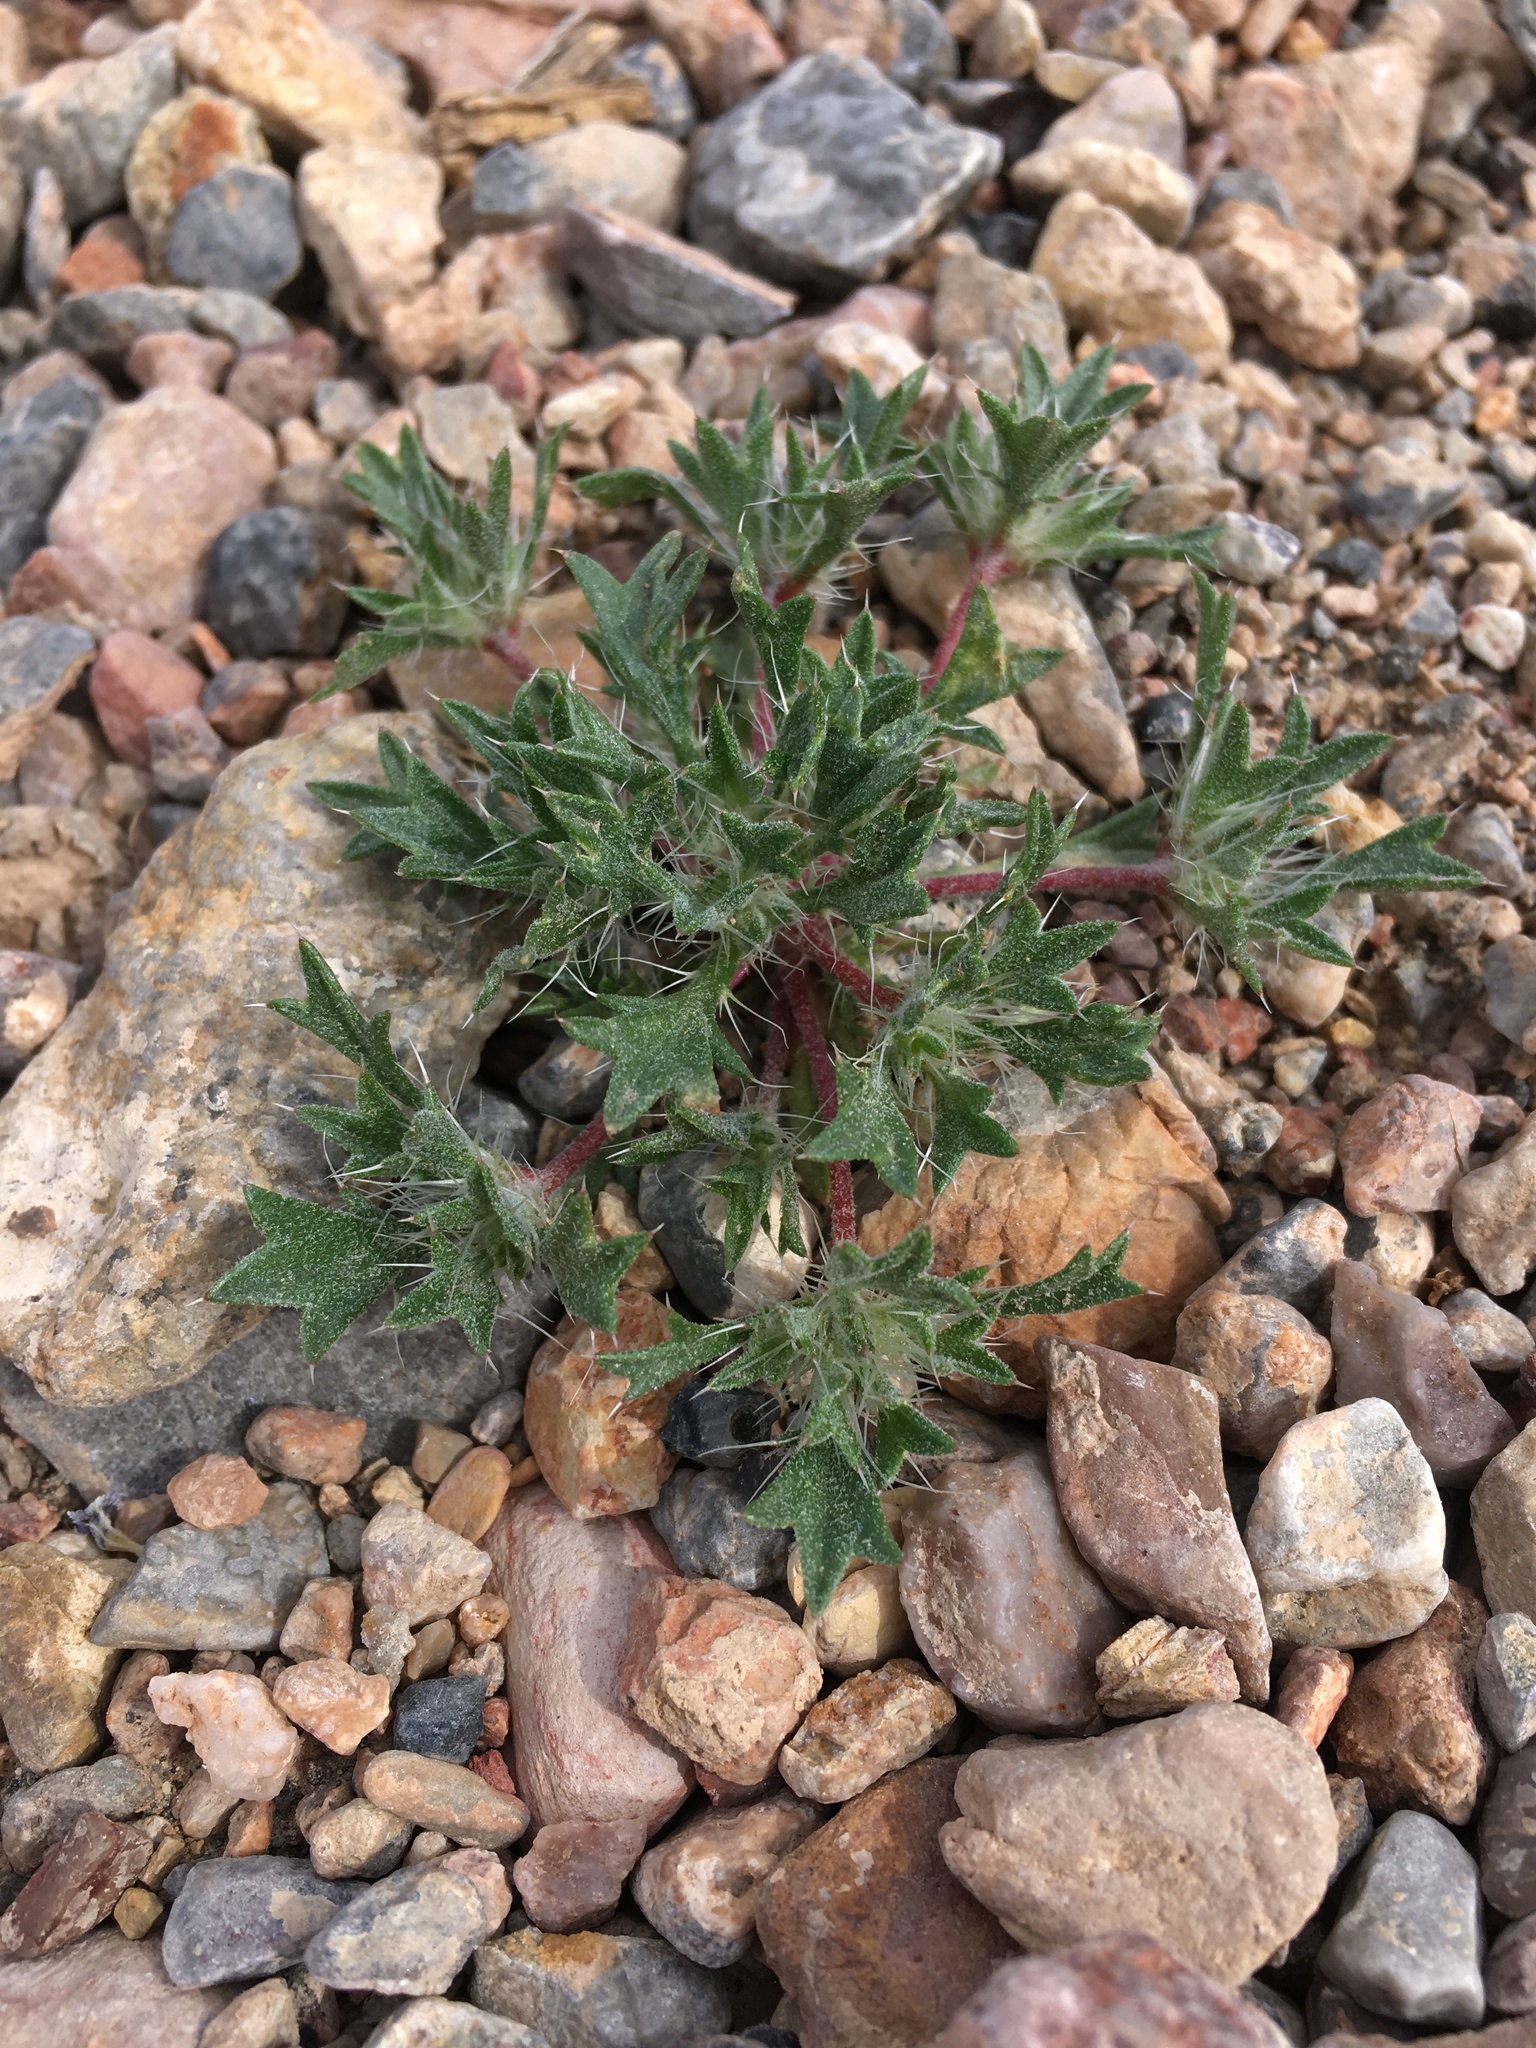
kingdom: Plantae
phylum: Tracheophyta
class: Magnoliopsida
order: Ericales
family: Polemoniaceae
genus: Langloisia
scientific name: Langloisia setosissima
